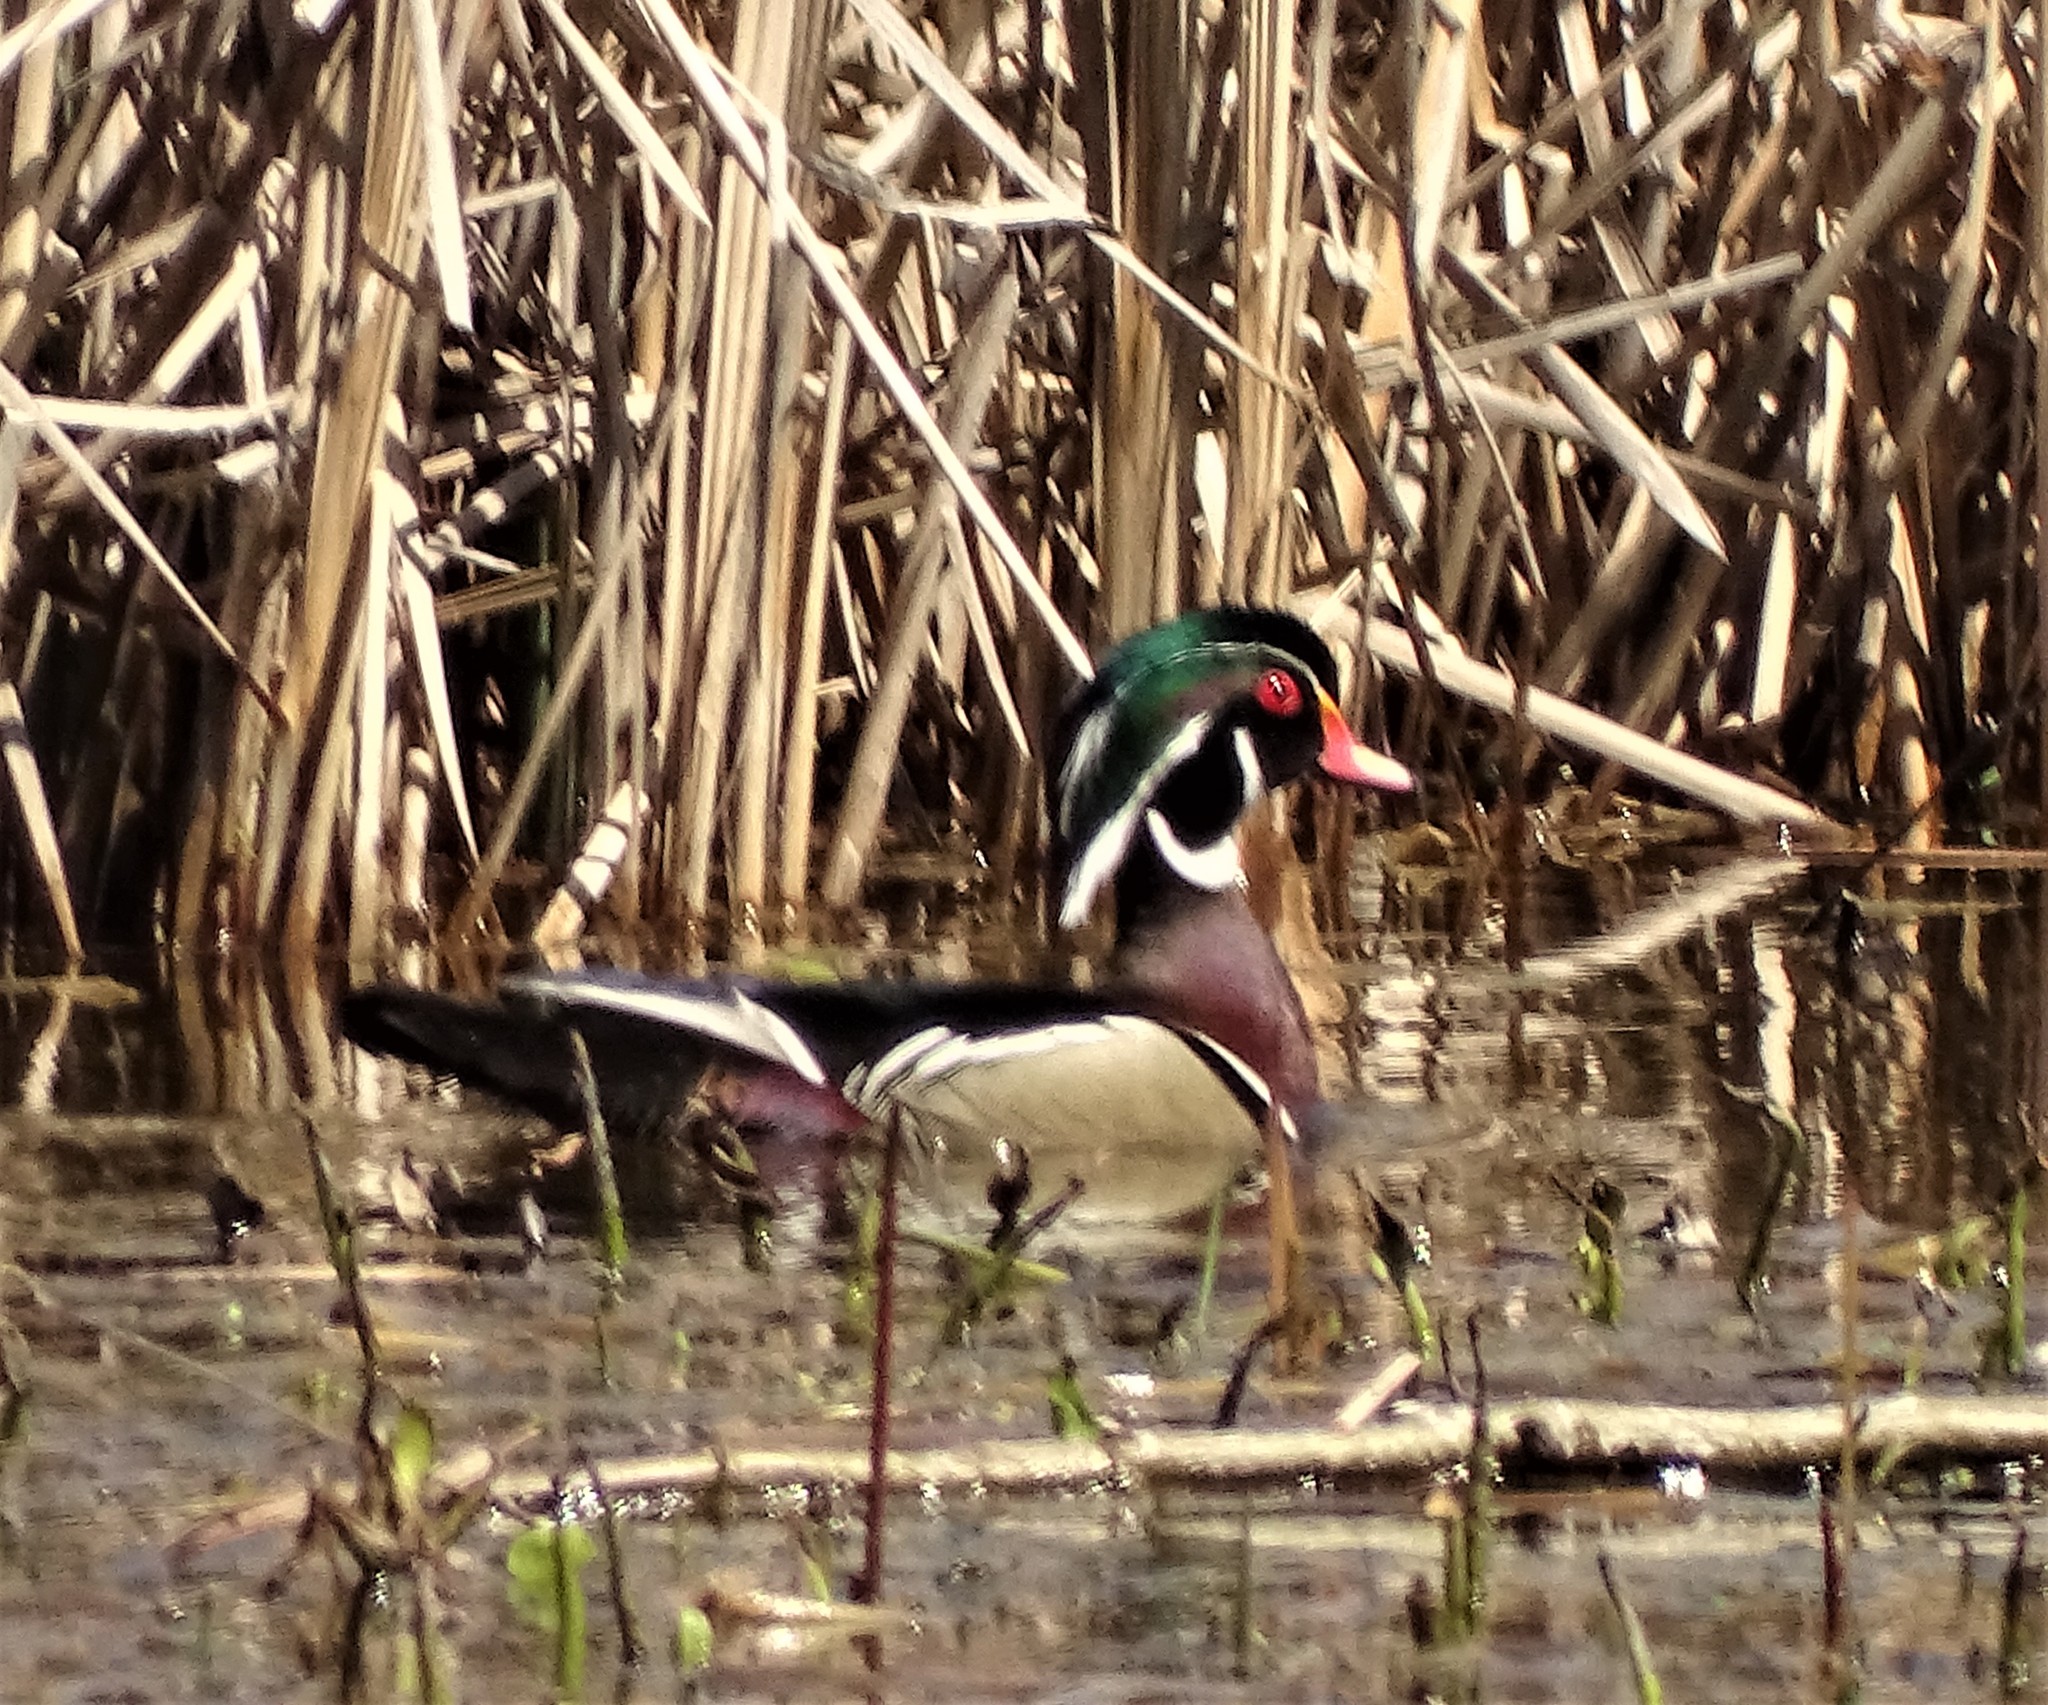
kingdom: Animalia
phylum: Chordata
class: Aves
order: Anseriformes
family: Anatidae
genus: Aix
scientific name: Aix sponsa
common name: Wood duck
